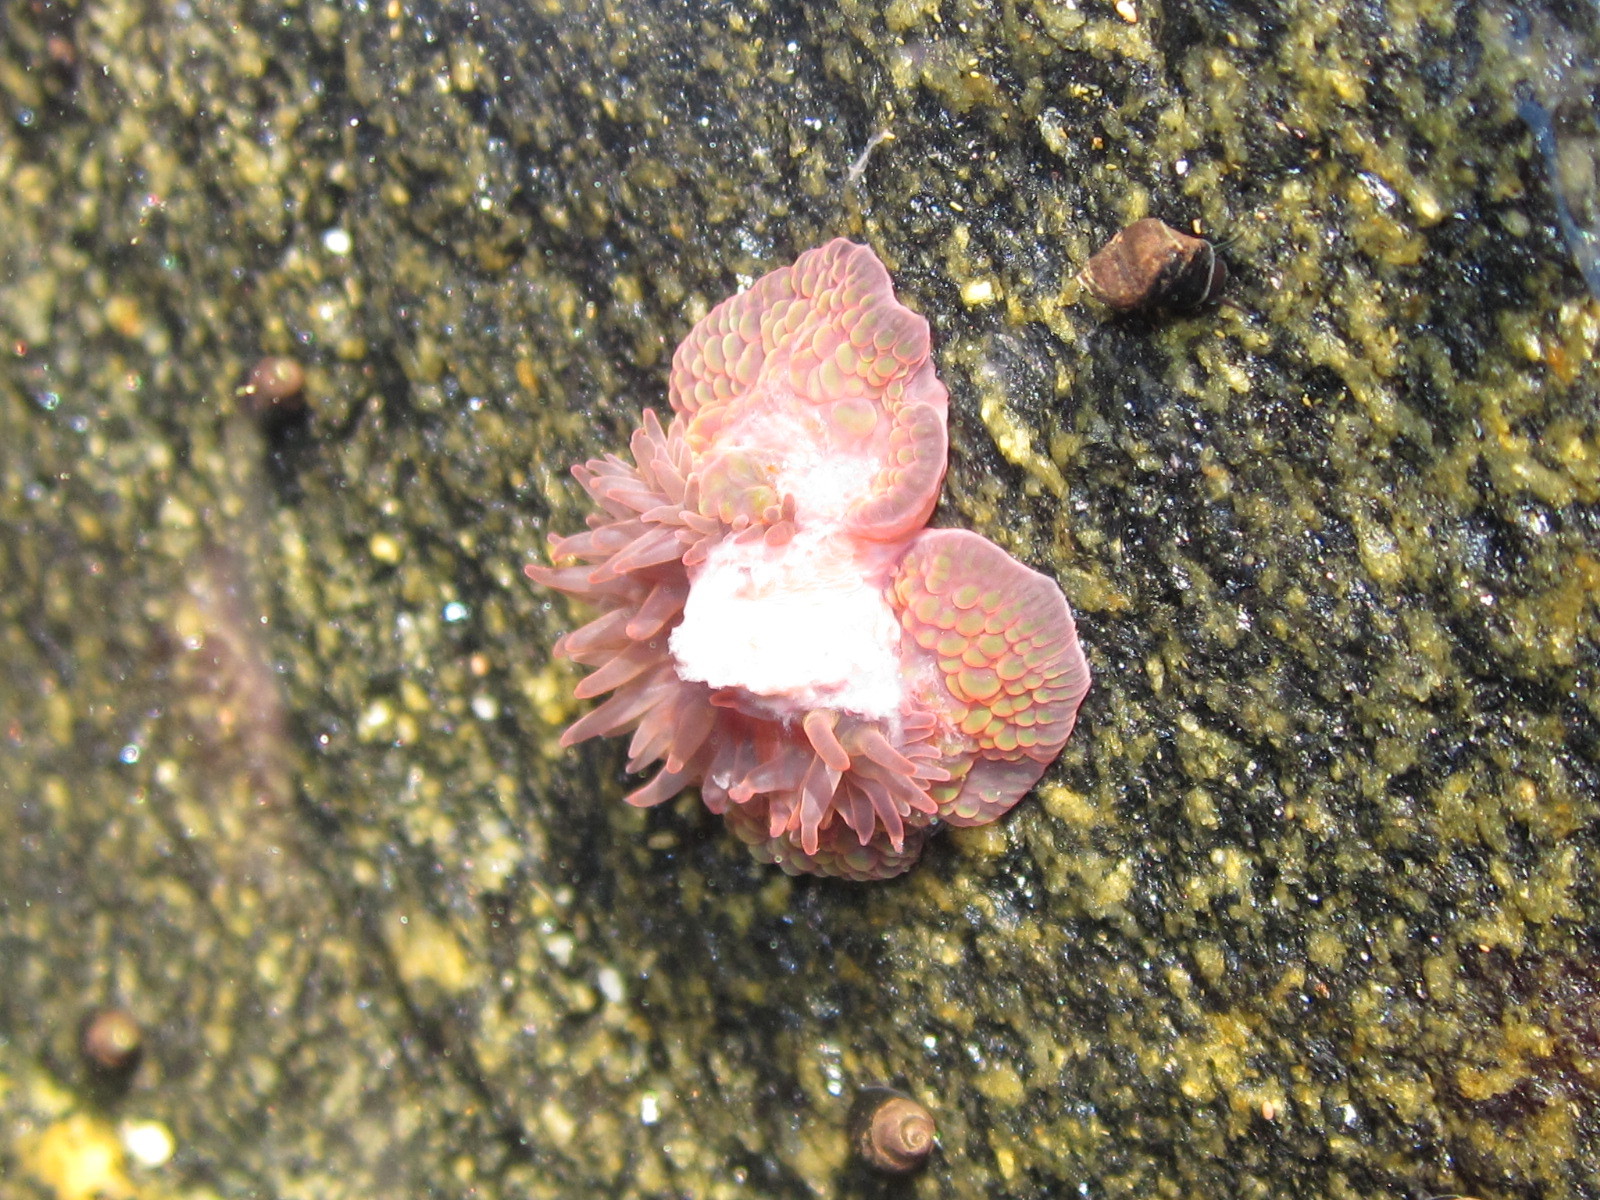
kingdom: Animalia
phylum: Cnidaria
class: Anthozoa
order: Actiniaria
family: Actiniidae
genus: Phymactis
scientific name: Phymactis papillosa
